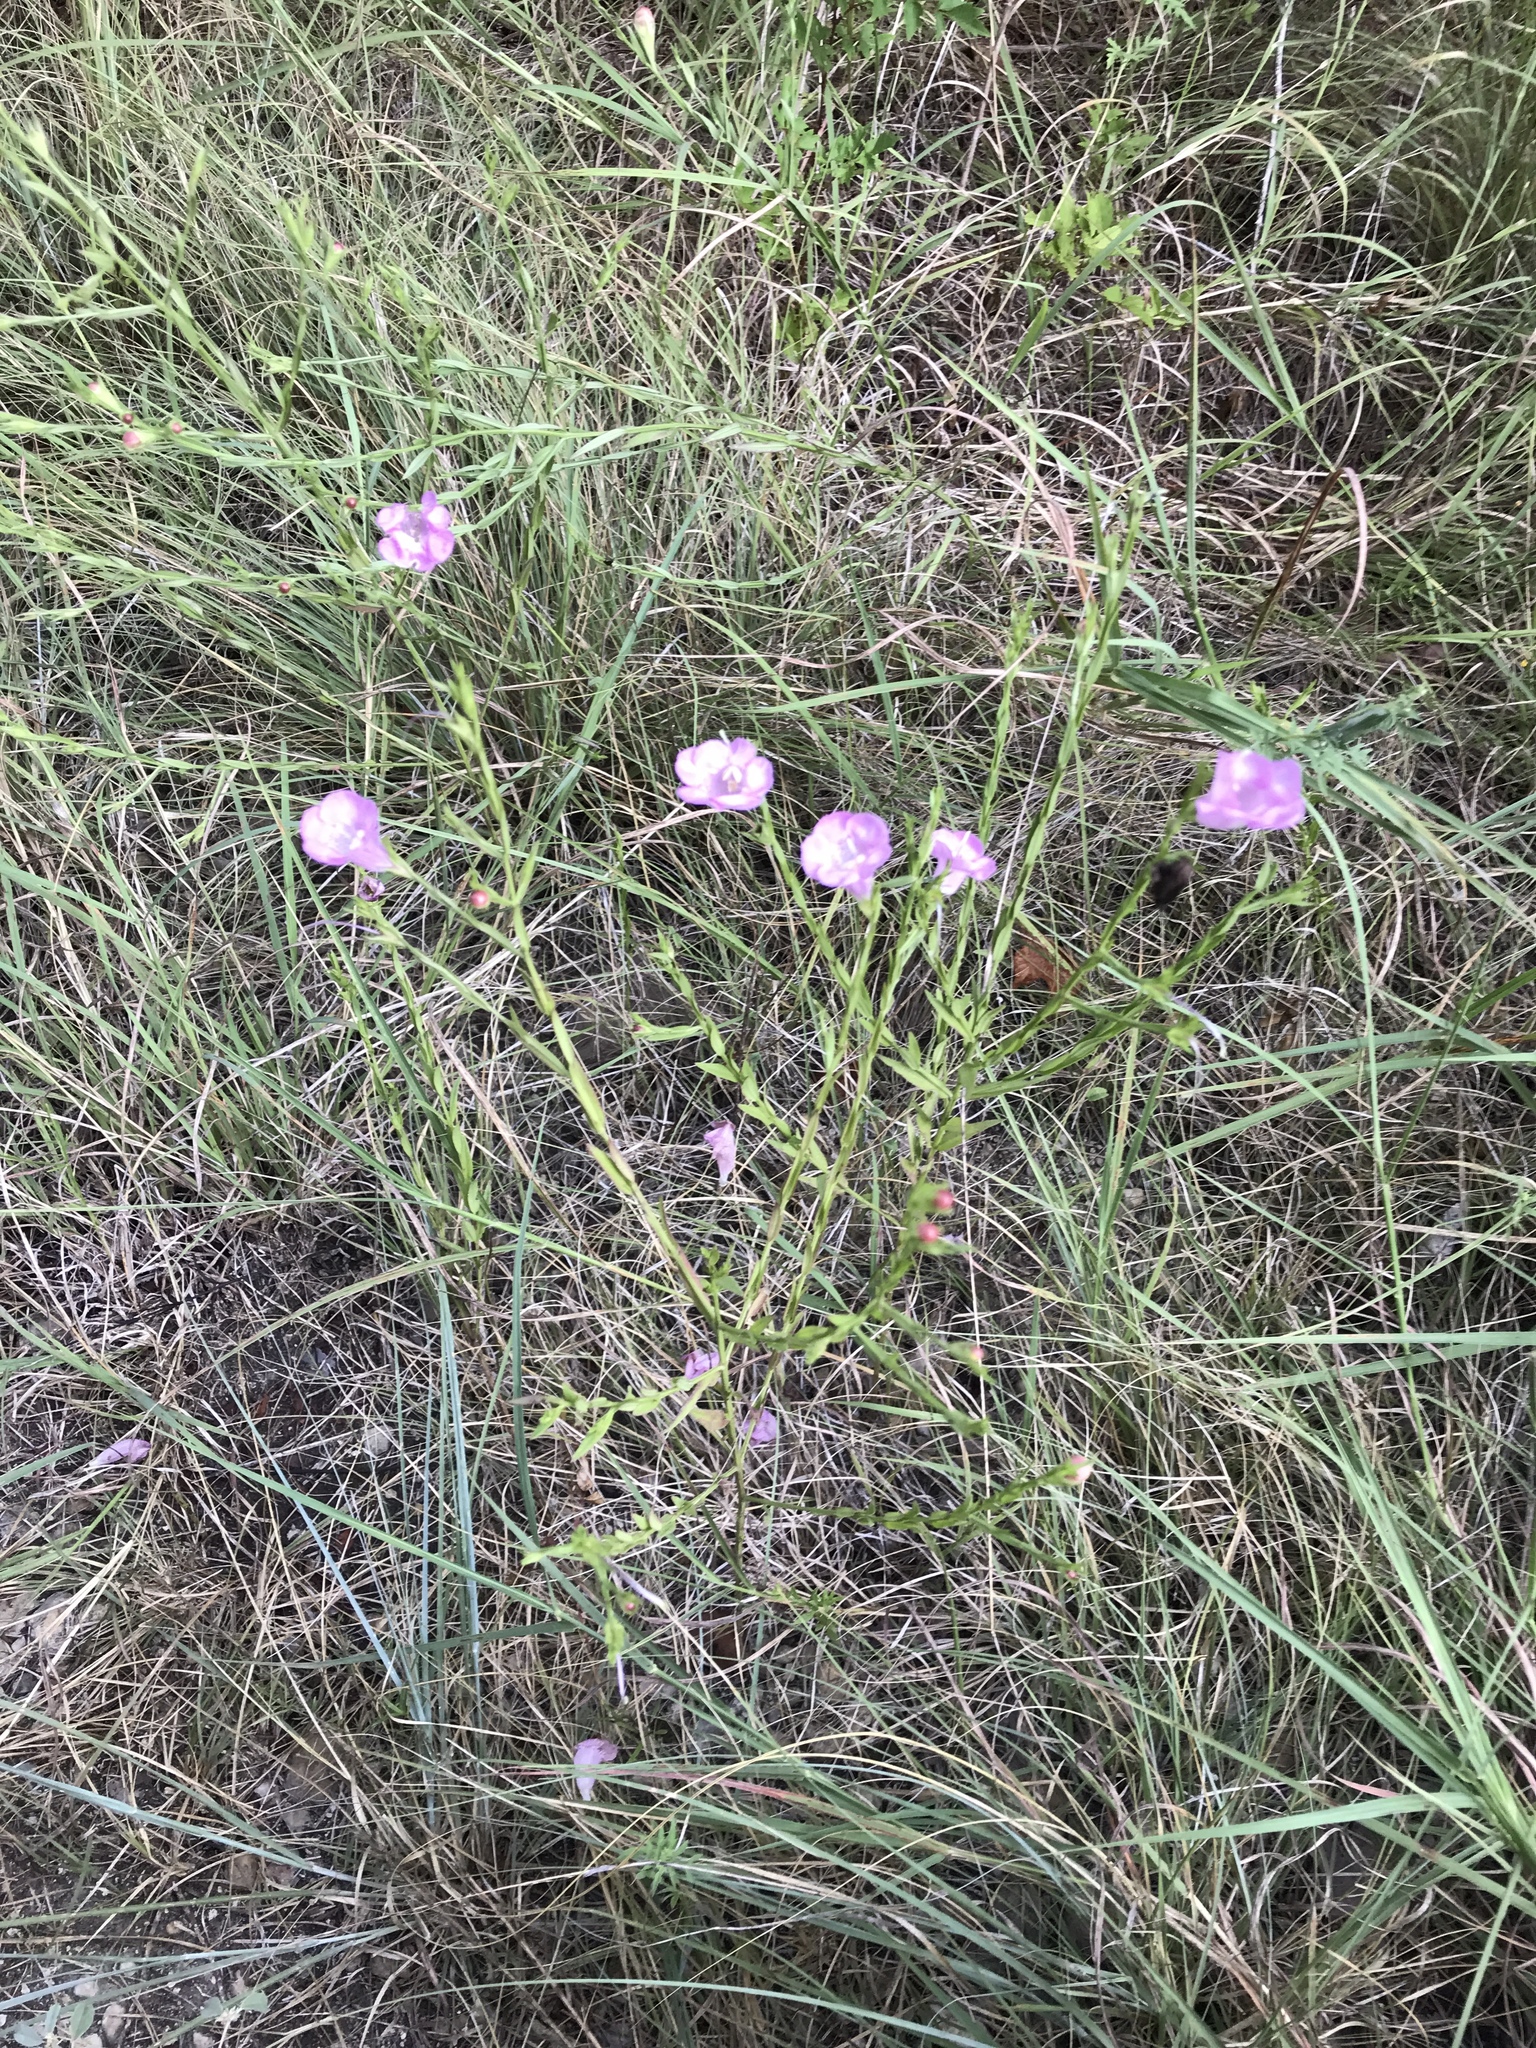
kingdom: Plantae
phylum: Tracheophyta
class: Magnoliopsida
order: Lamiales
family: Orobanchaceae
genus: Agalinis
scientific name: Agalinis heterophylla
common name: Prairie agalinis
